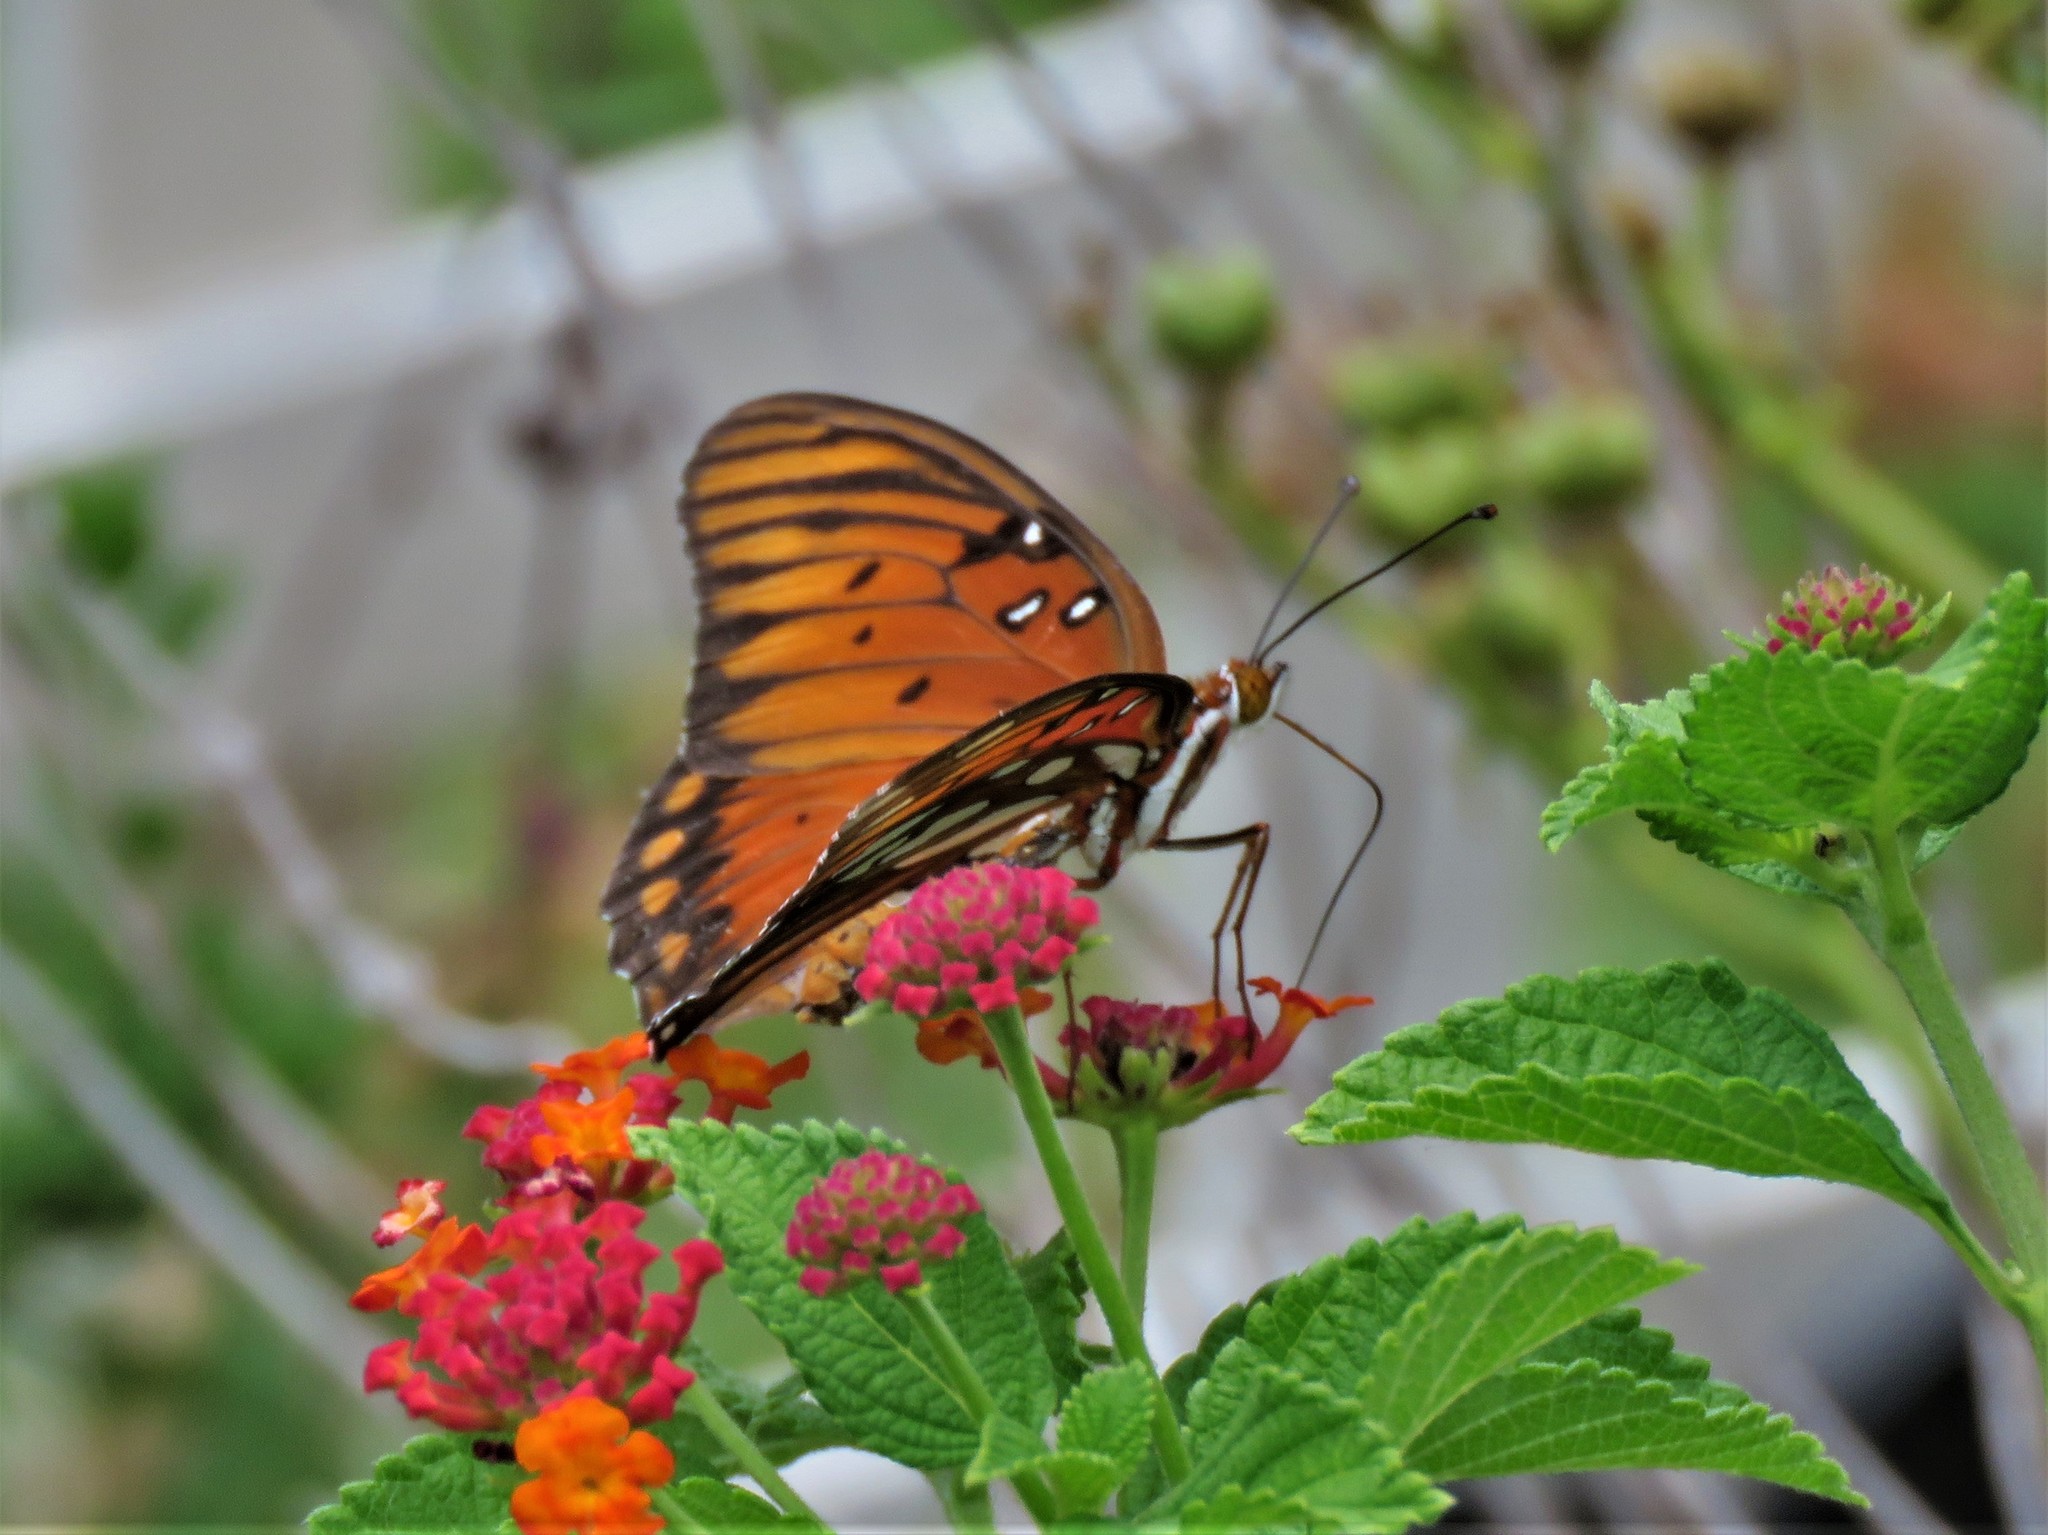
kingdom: Animalia
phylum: Arthropoda
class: Insecta
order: Lepidoptera
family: Nymphalidae
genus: Dione
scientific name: Dione vanillae
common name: Gulf fritillary
